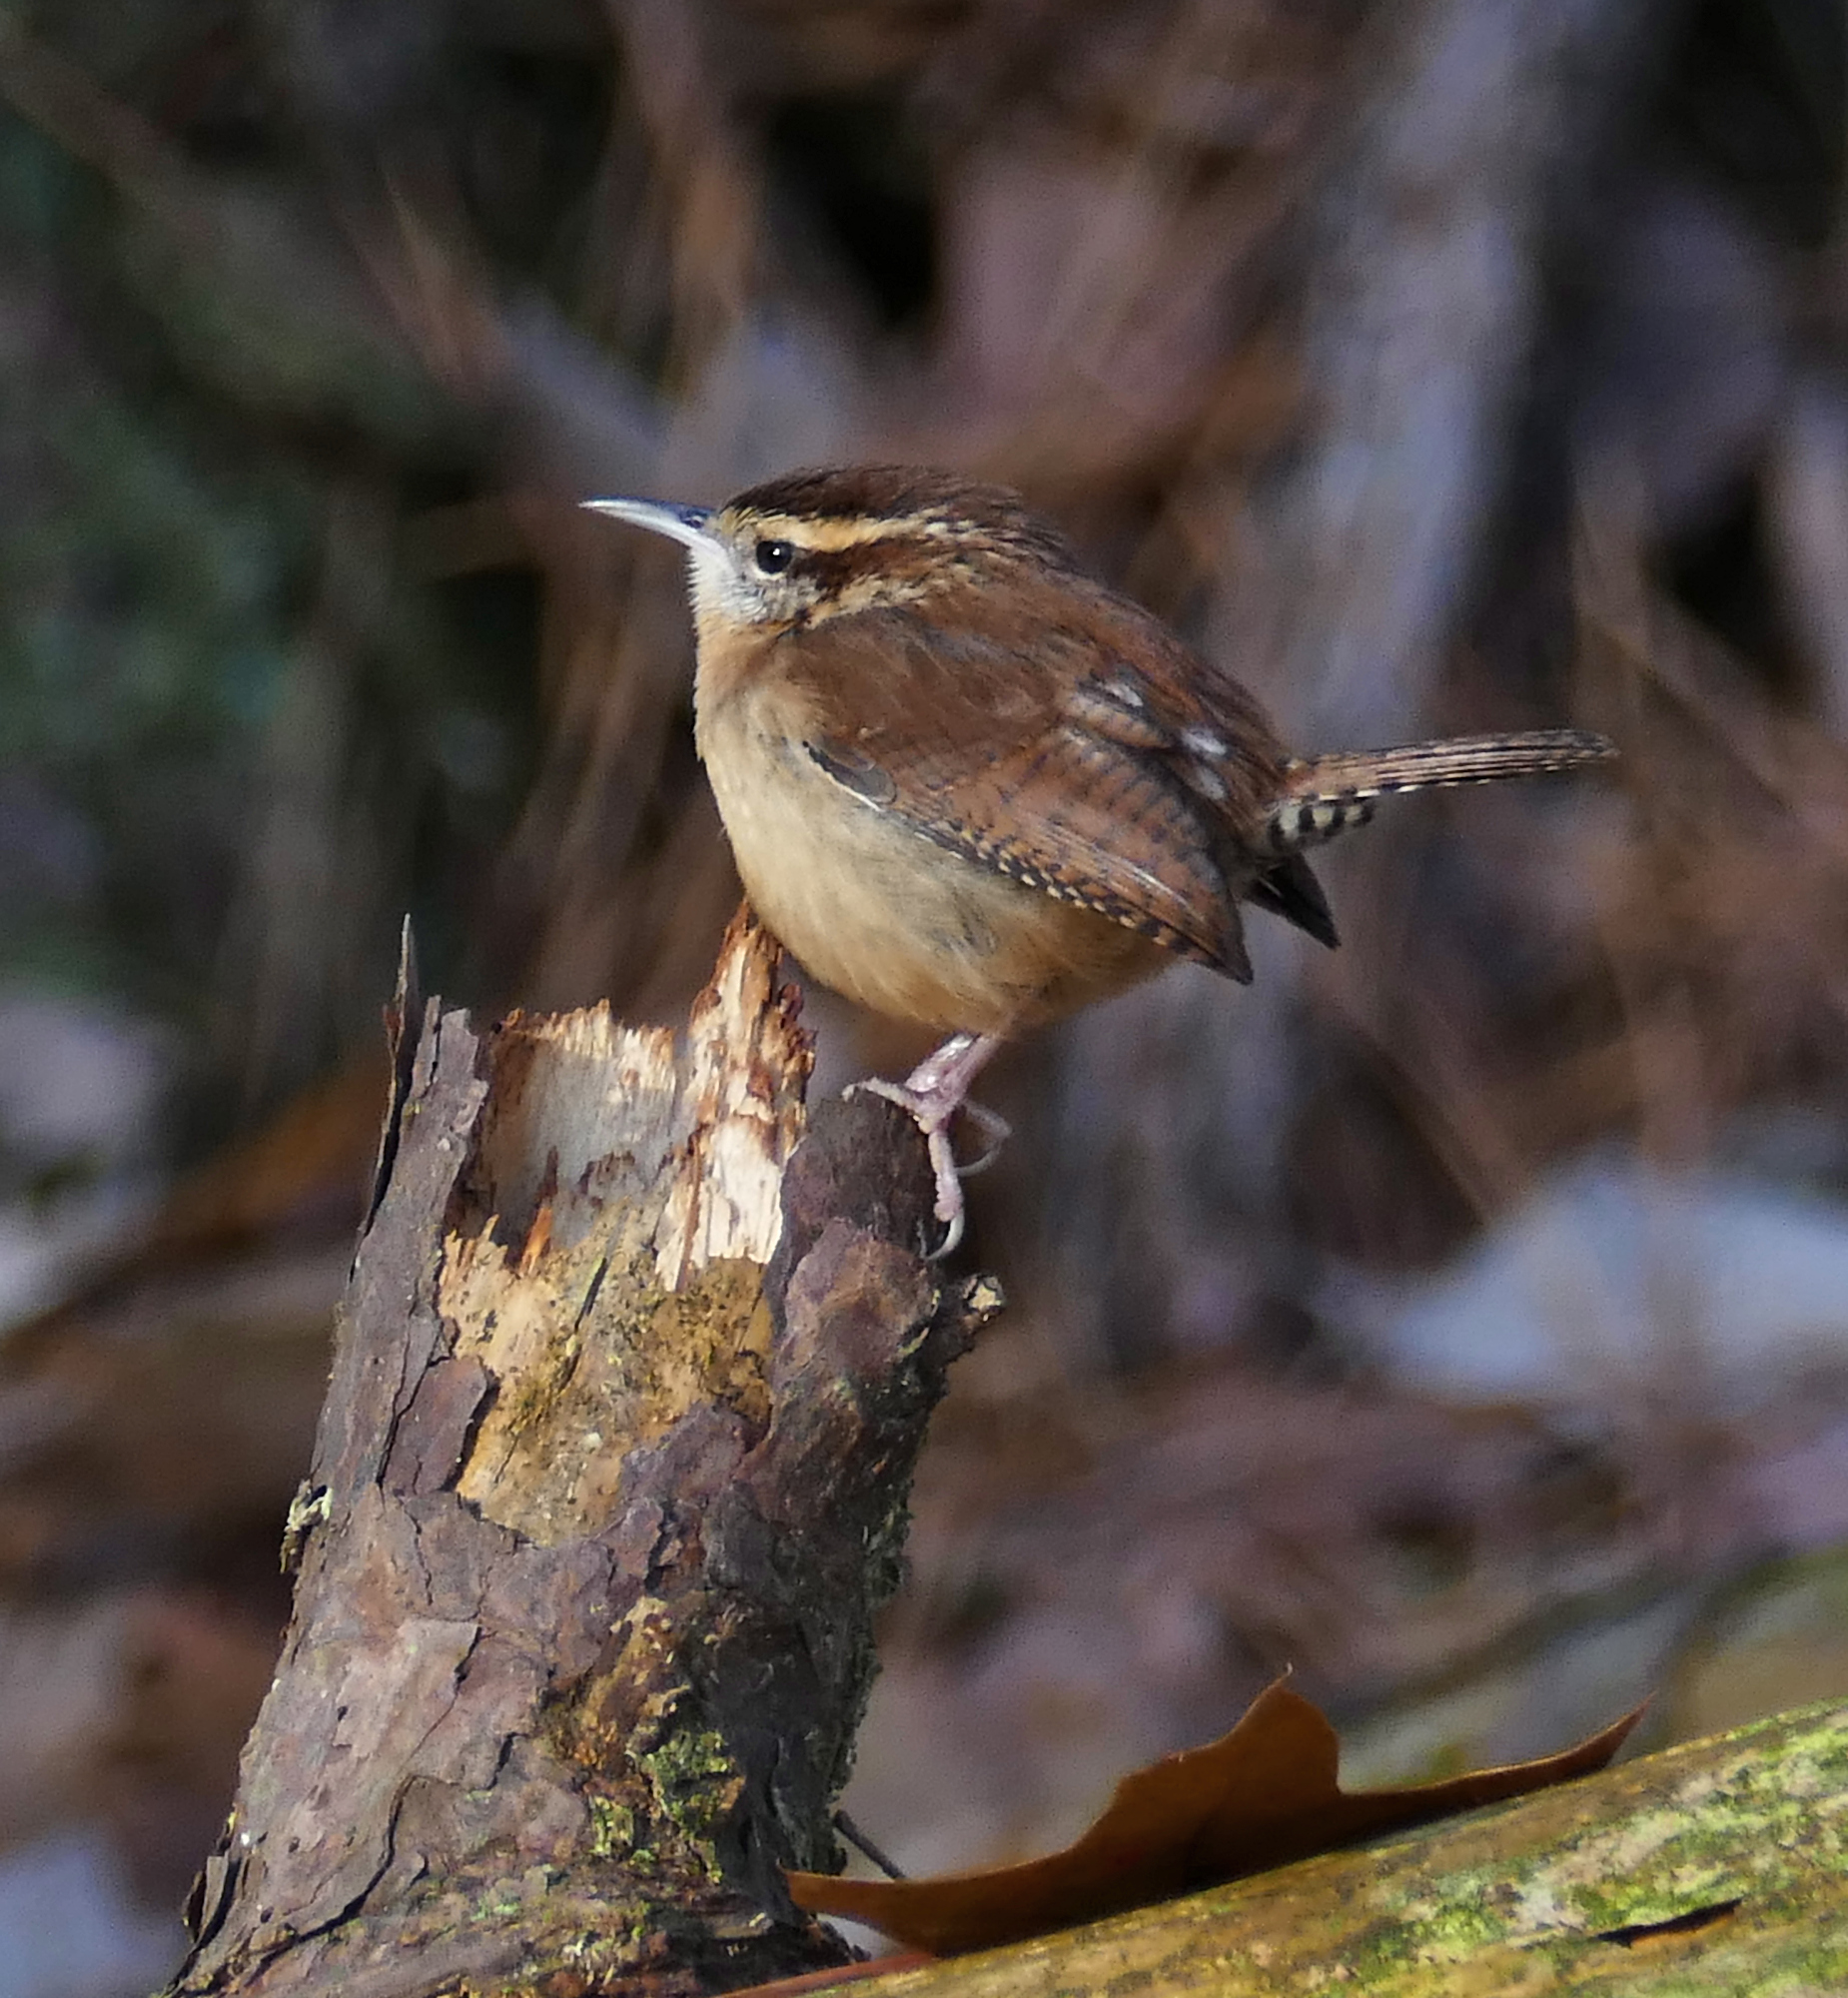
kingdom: Animalia
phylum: Chordata
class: Aves
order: Passeriformes
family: Troglodytidae
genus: Thryothorus
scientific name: Thryothorus ludovicianus
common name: Carolina wren
